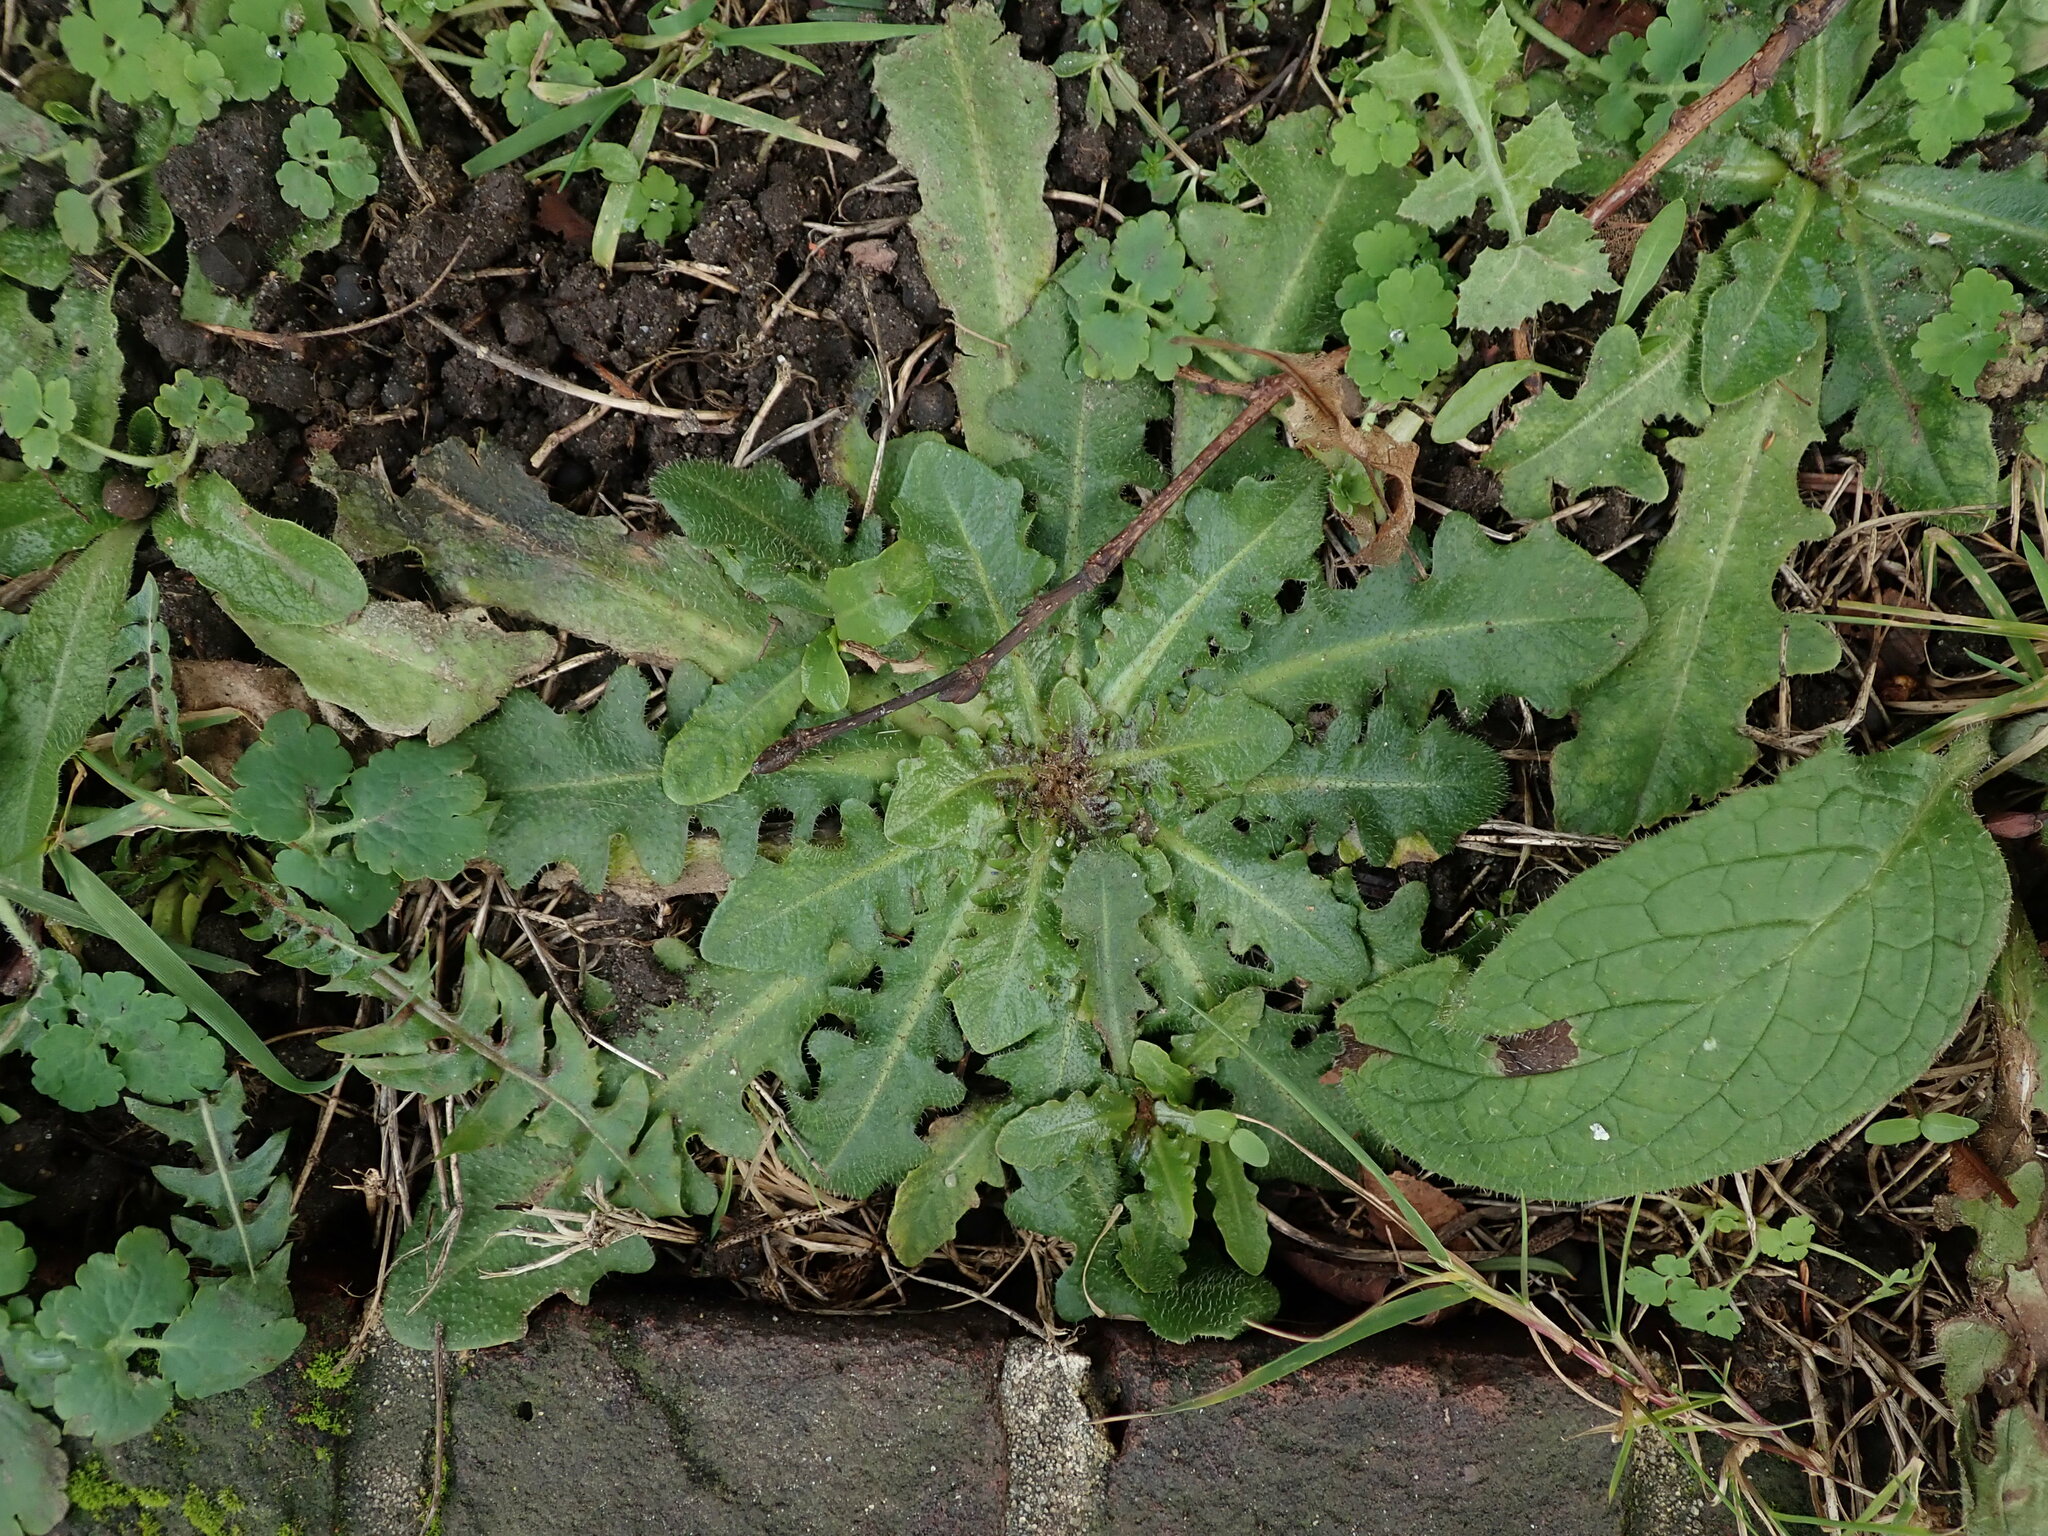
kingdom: Plantae
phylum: Tracheophyta
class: Magnoliopsida
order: Asterales
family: Asteraceae
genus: Hypochaeris
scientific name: Hypochaeris radicata
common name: Flatweed
